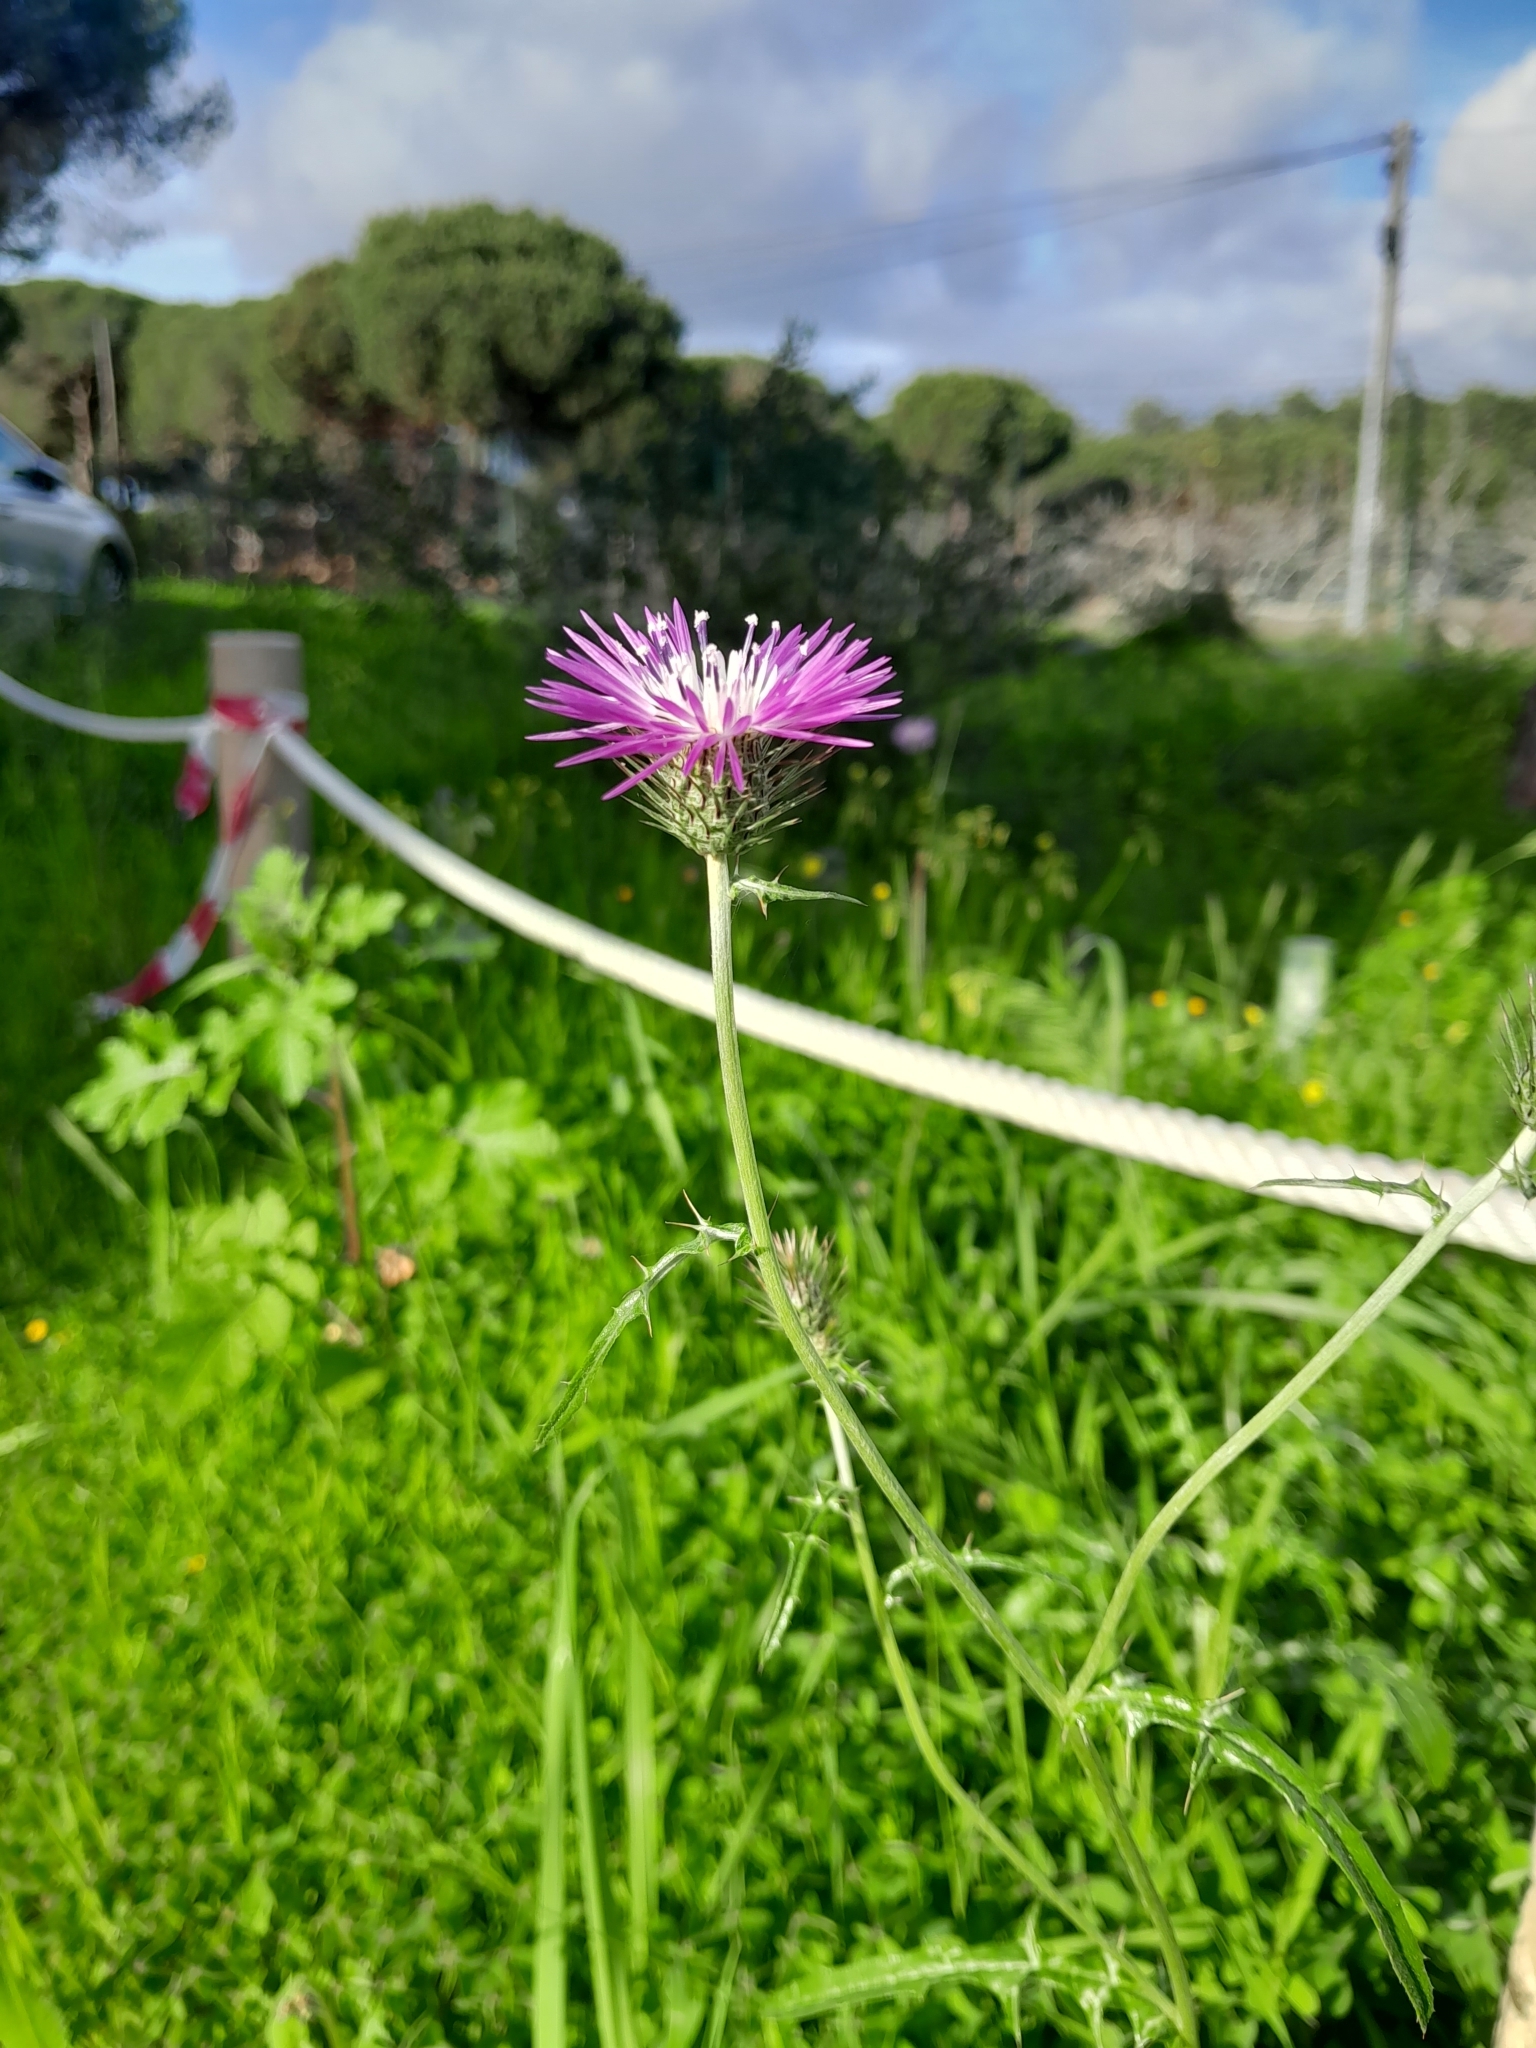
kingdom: Plantae
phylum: Tracheophyta
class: Magnoliopsida
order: Asterales
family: Asteraceae
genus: Galactites
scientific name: Galactites tomentosa
